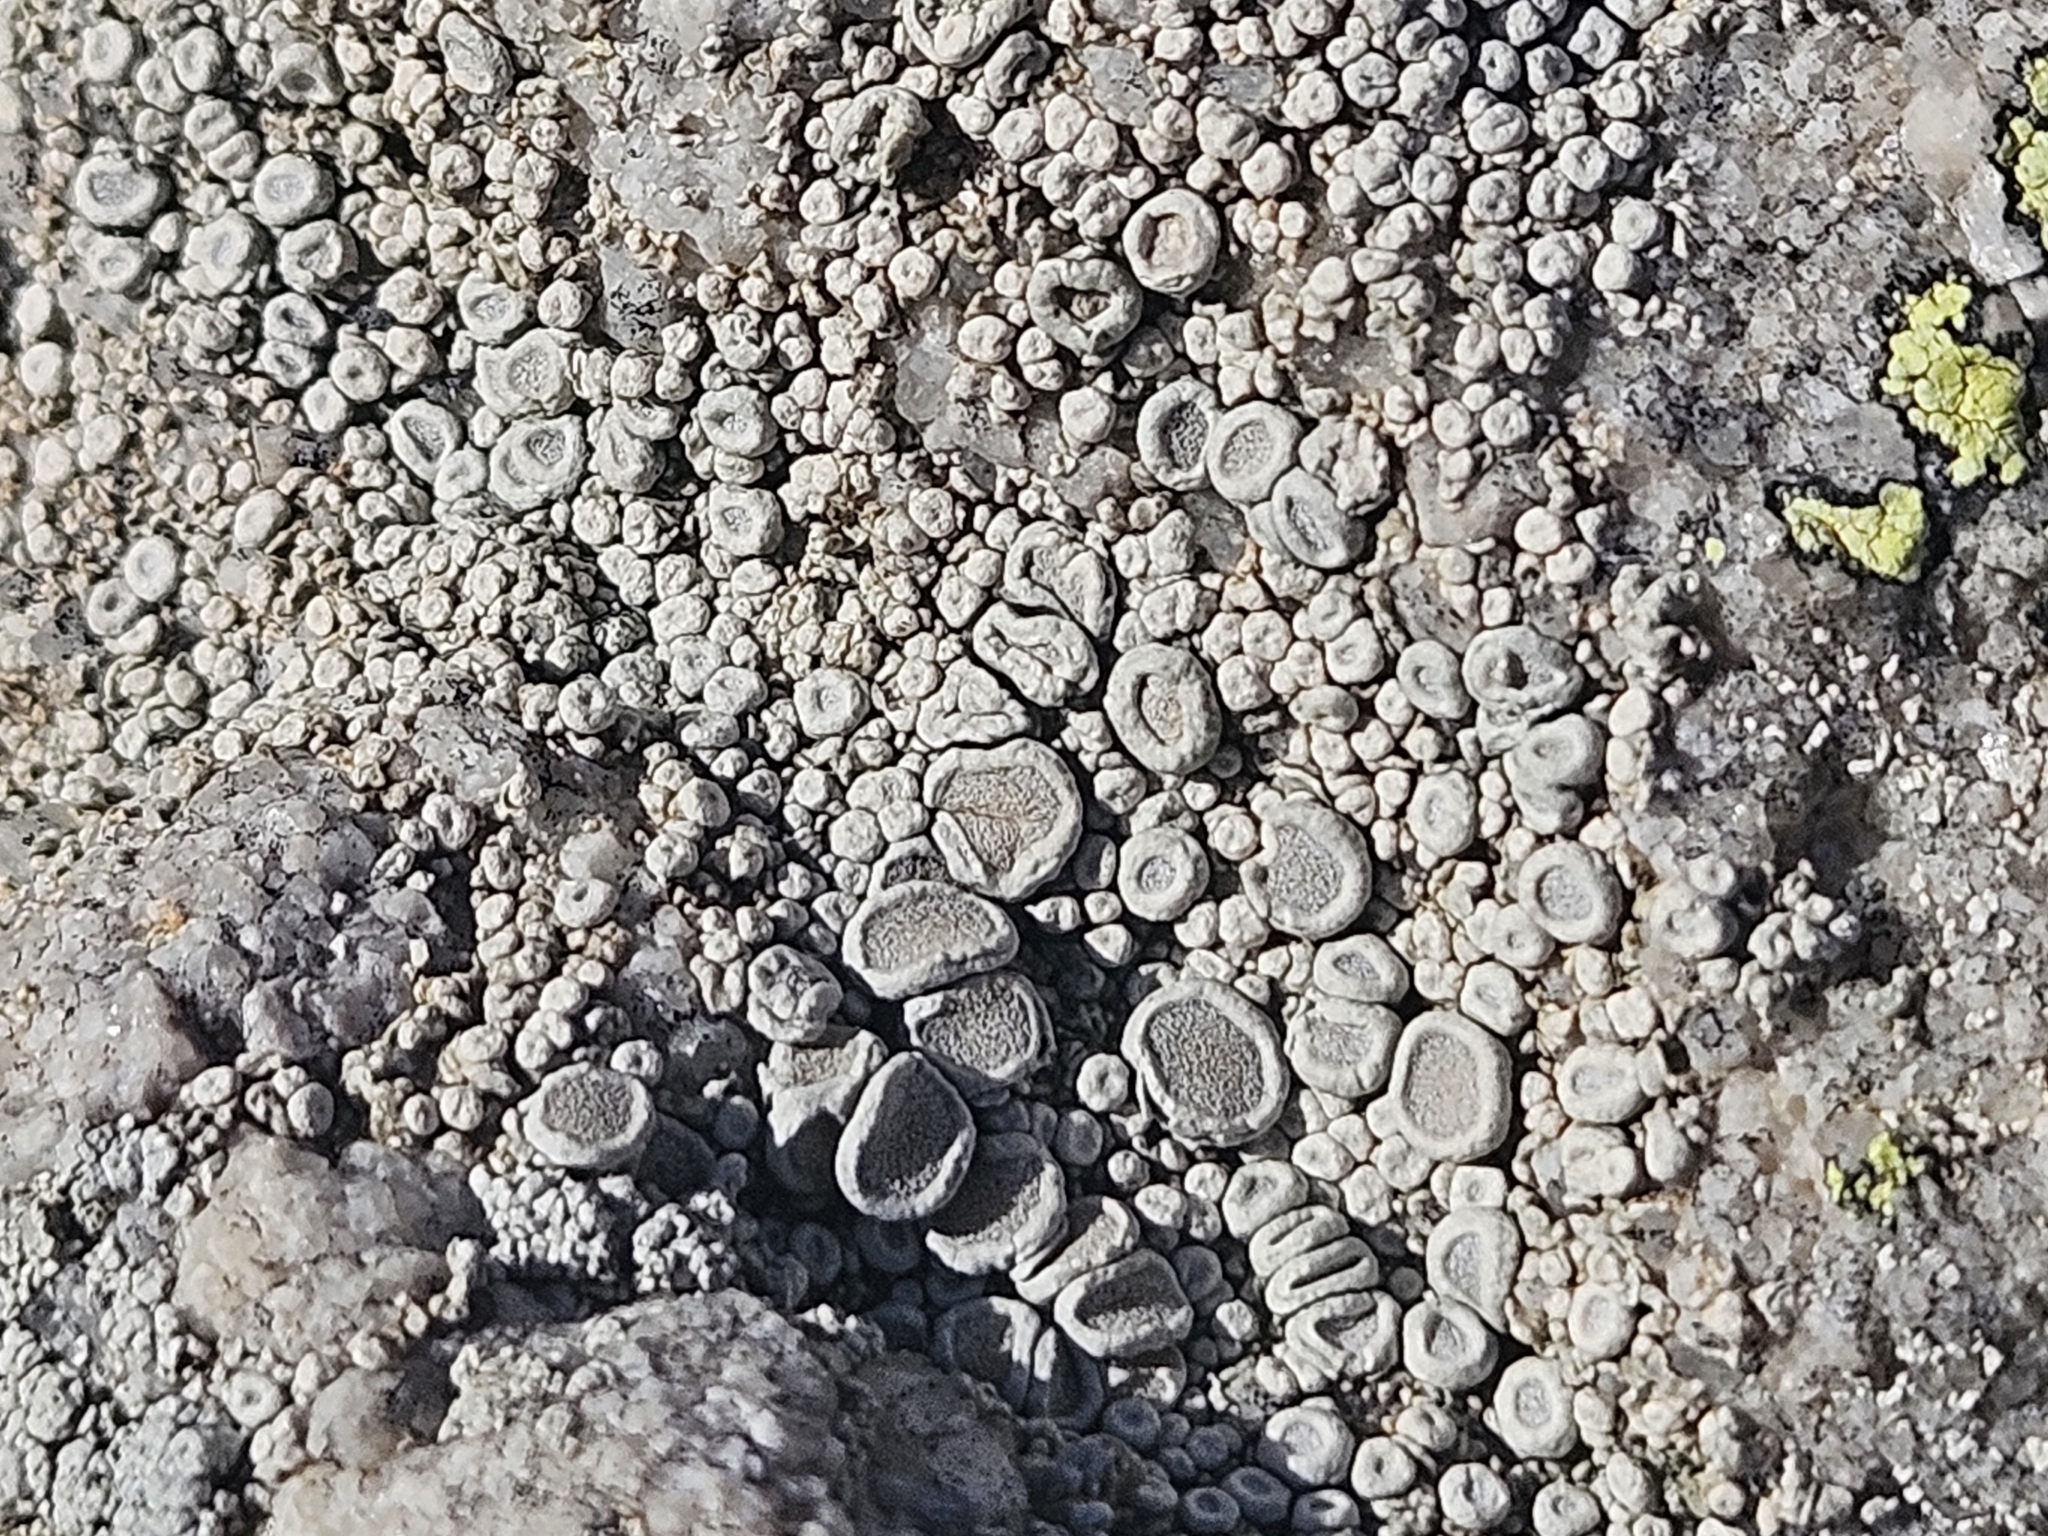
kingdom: Fungi
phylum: Ascomycota
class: Lecanoromycetes
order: Pertusariales
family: Ochrolechiaceae
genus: Ochrolechia
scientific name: Ochrolechia parella
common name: Crab's eye lichen
